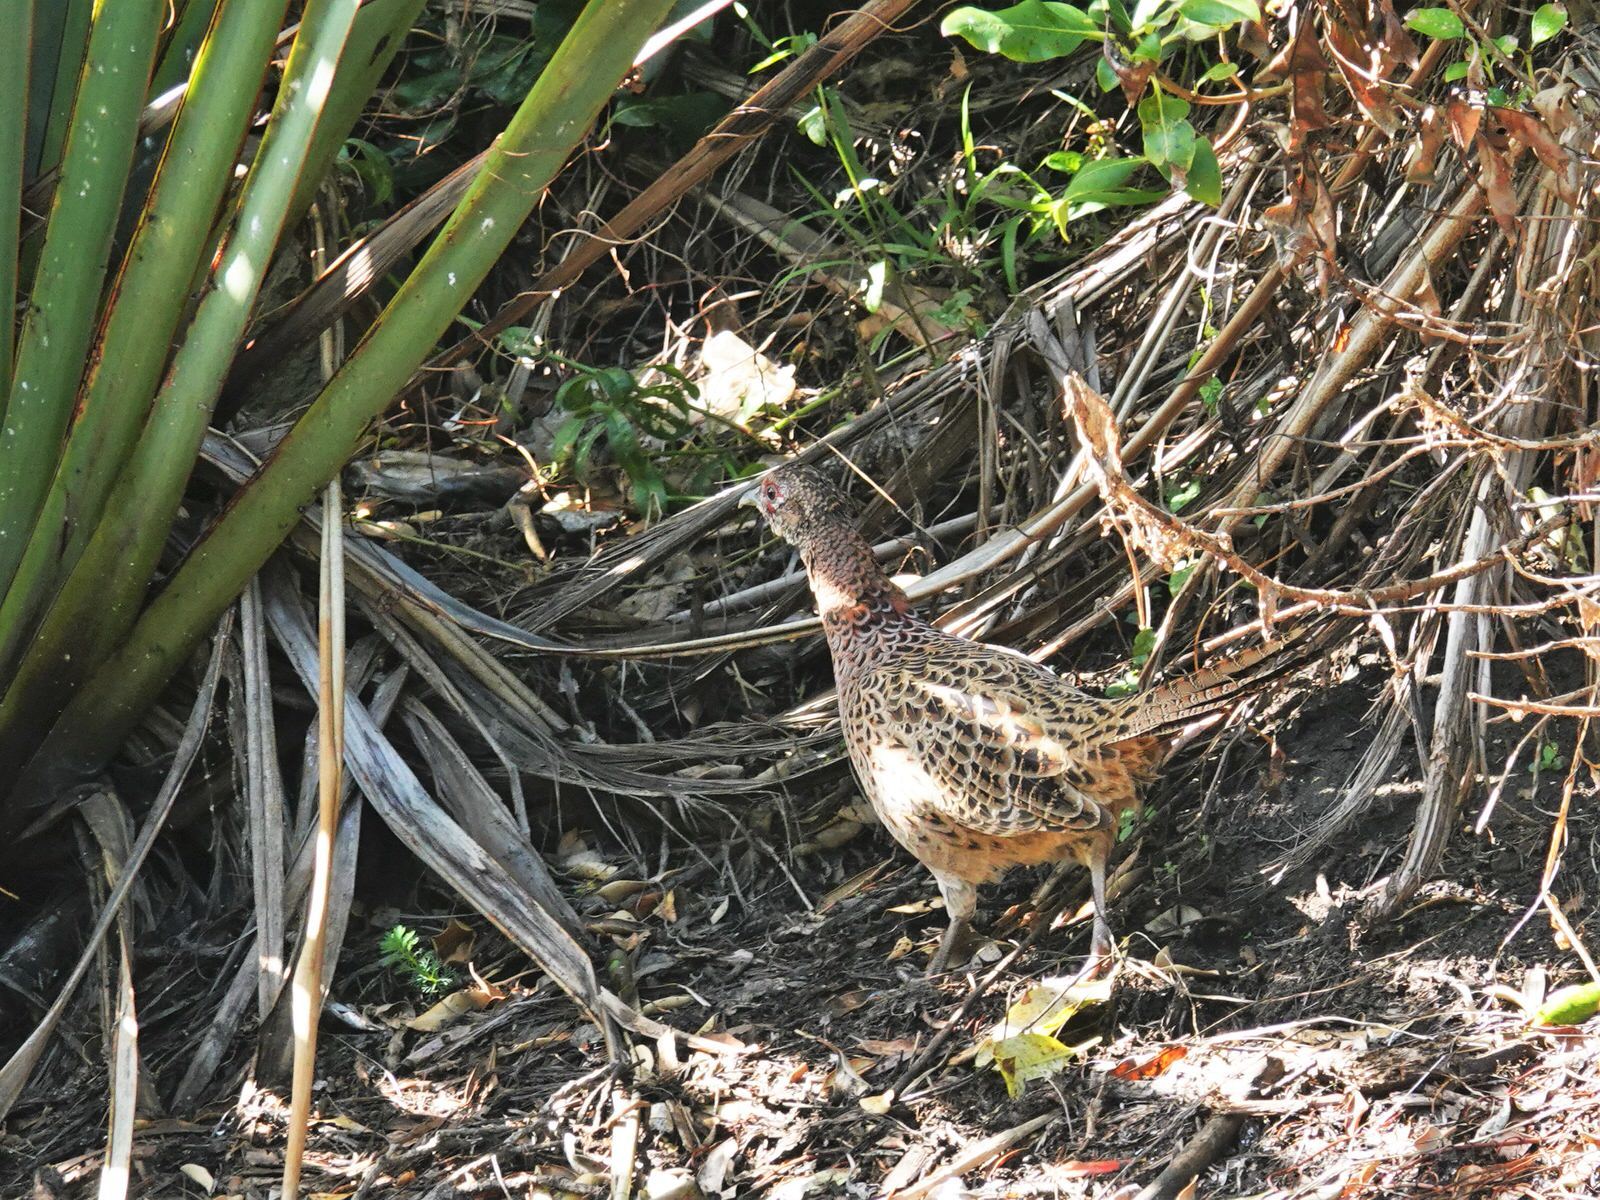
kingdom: Animalia
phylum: Chordata
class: Aves
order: Galliformes
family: Phasianidae
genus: Phasianus
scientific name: Phasianus colchicus
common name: Common pheasant
